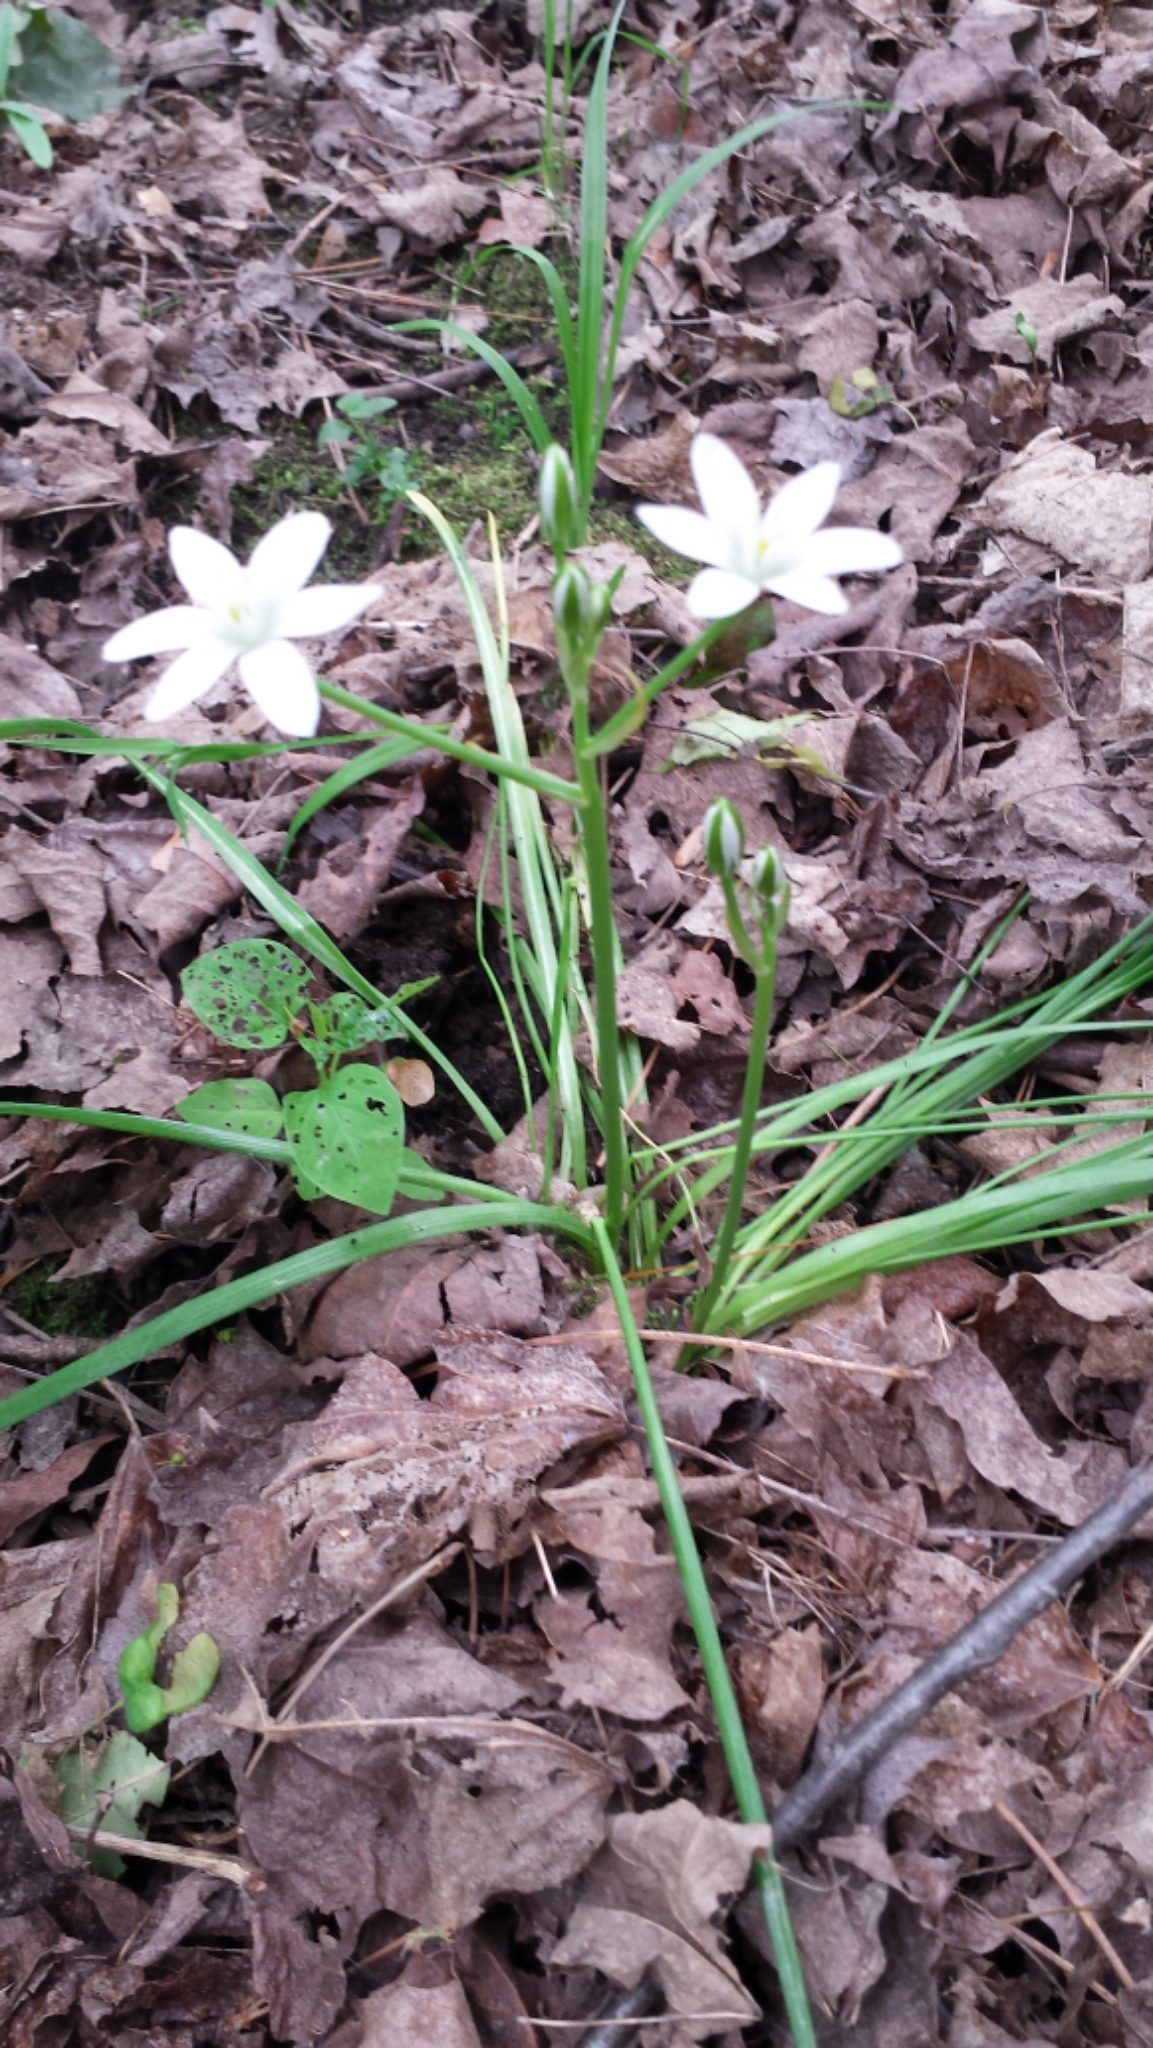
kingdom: Plantae
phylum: Tracheophyta
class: Liliopsida
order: Asparagales
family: Asparagaceae
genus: Ornithogalum
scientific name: Ornithogalum umbellatum
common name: Garden star-of-bethlehem
